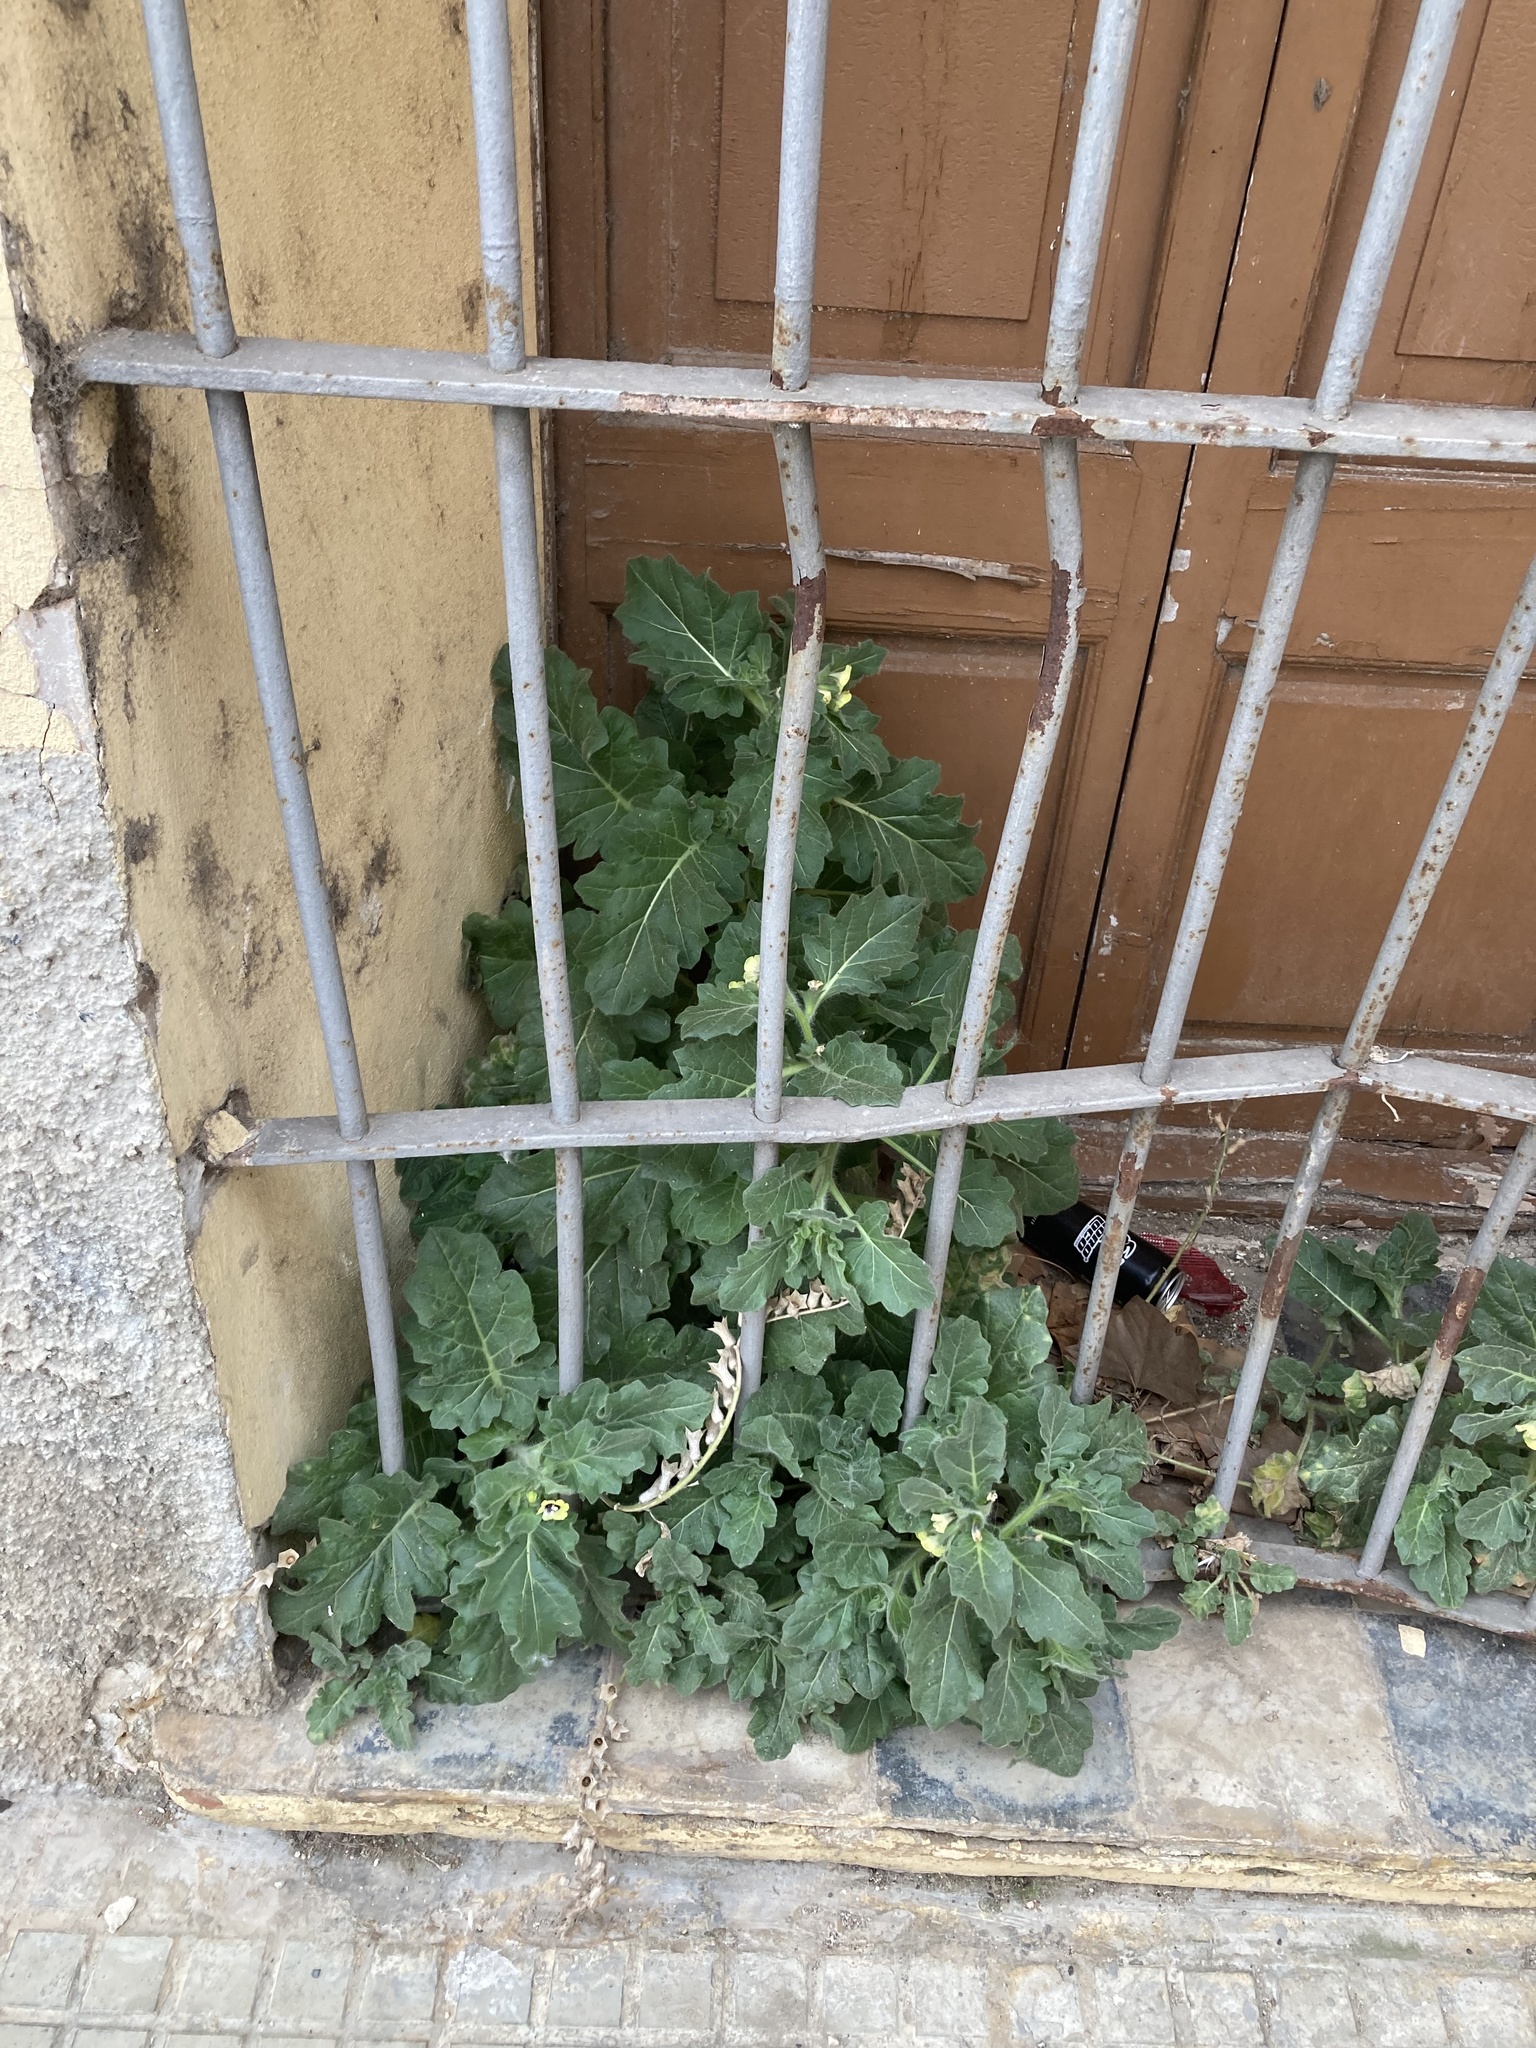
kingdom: Plantae
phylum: Tracheophyta
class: Magnoliopsida
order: Solanales
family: Solanaceae
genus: Hyoscyamus
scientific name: Hyoscyamus albus
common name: White henbane
